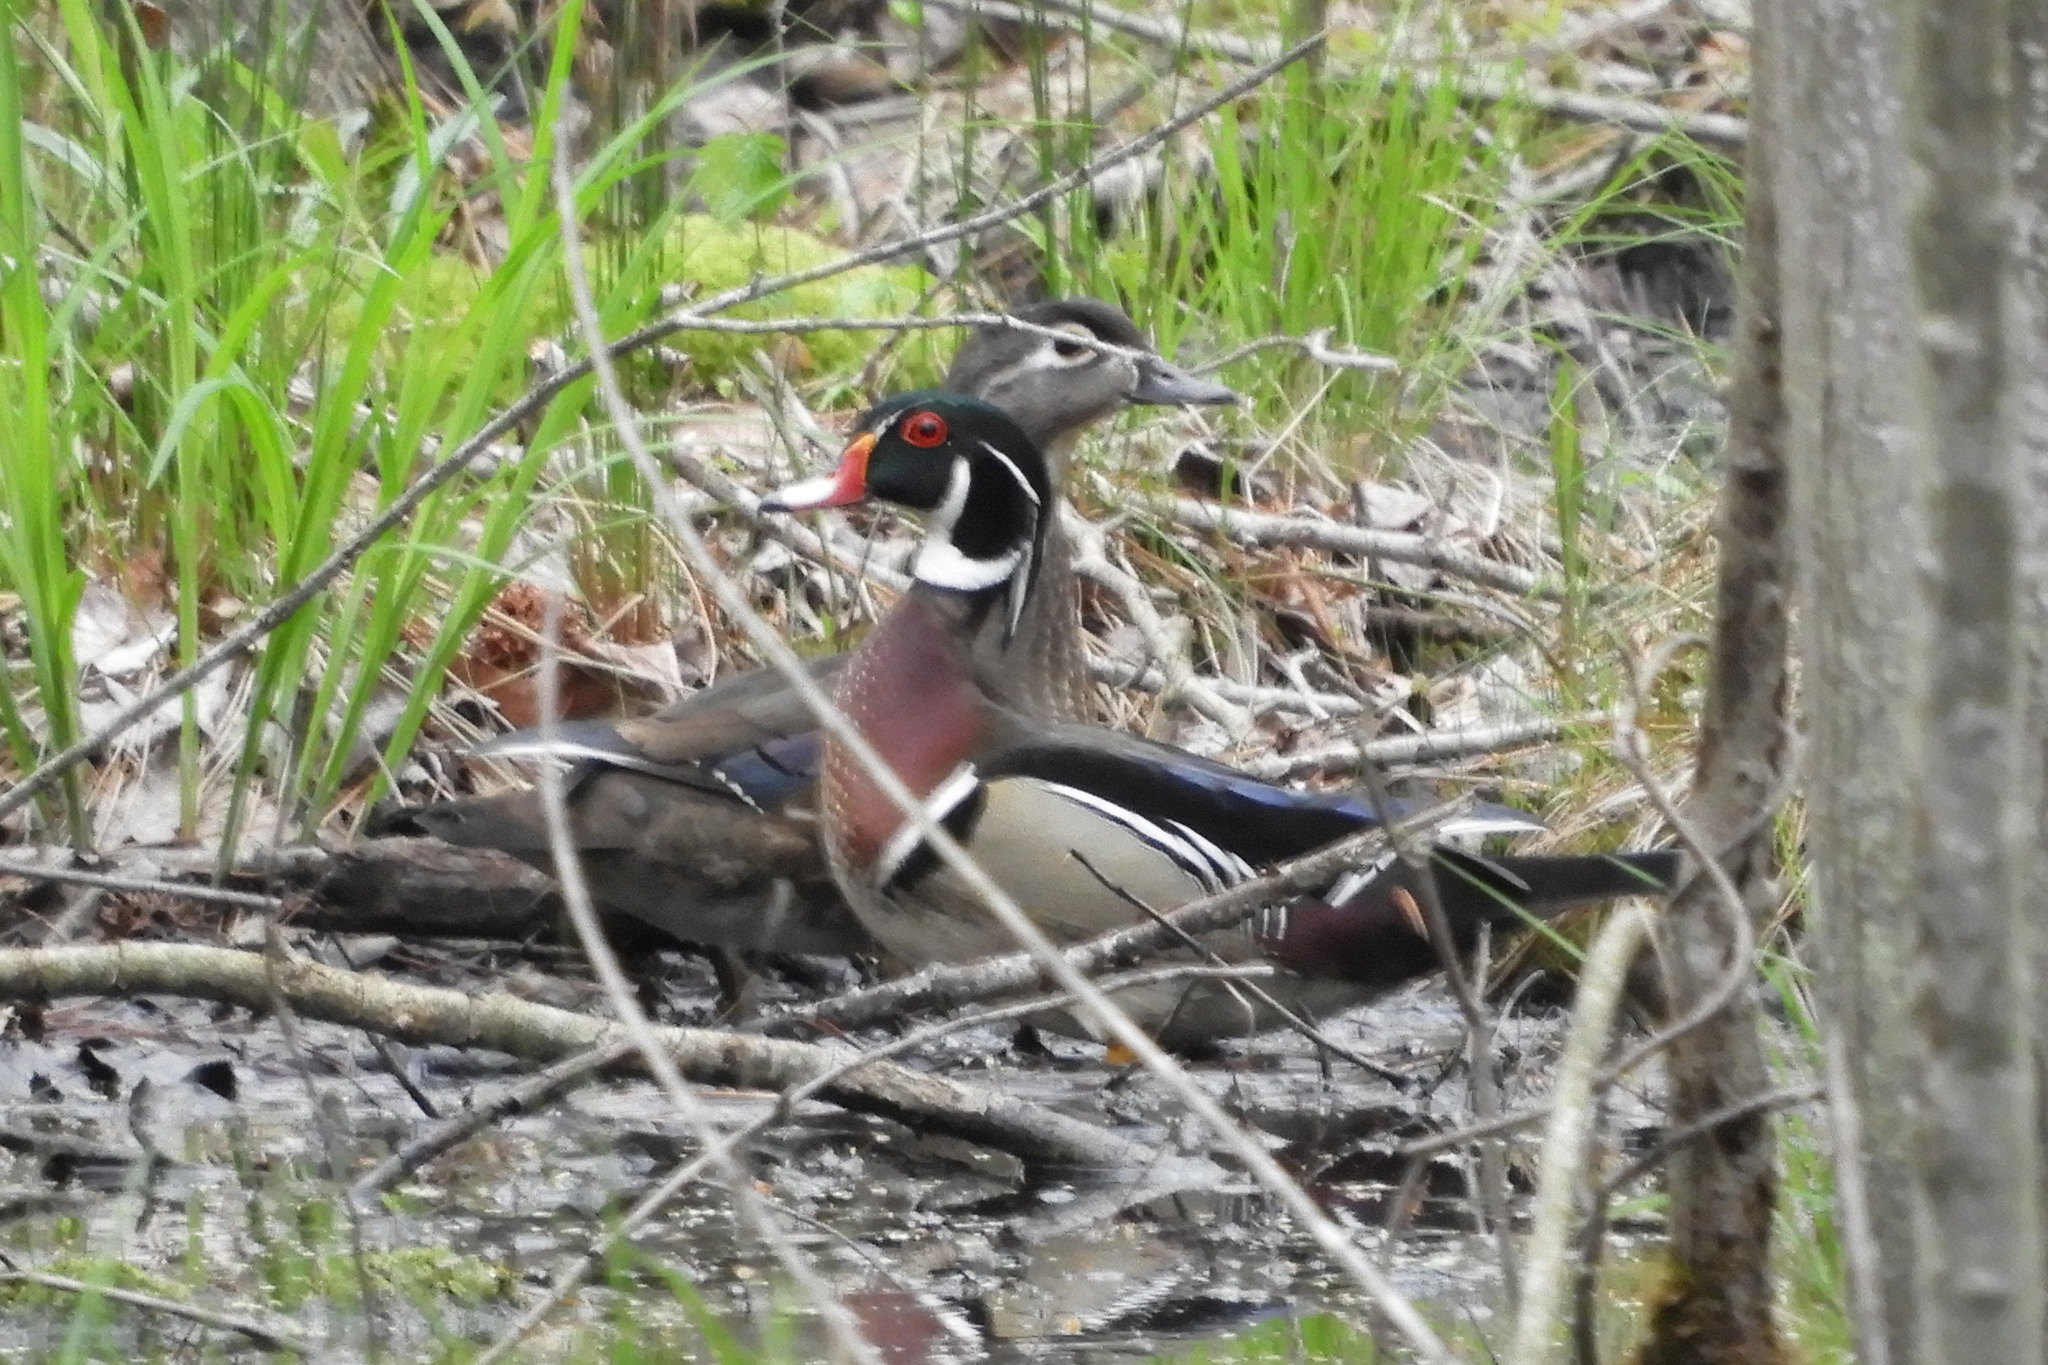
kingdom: Animalia
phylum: Chordata
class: Aves
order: Anseriformes
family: Anatidae
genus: Aix
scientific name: Aix sponsa
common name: Wood duck
